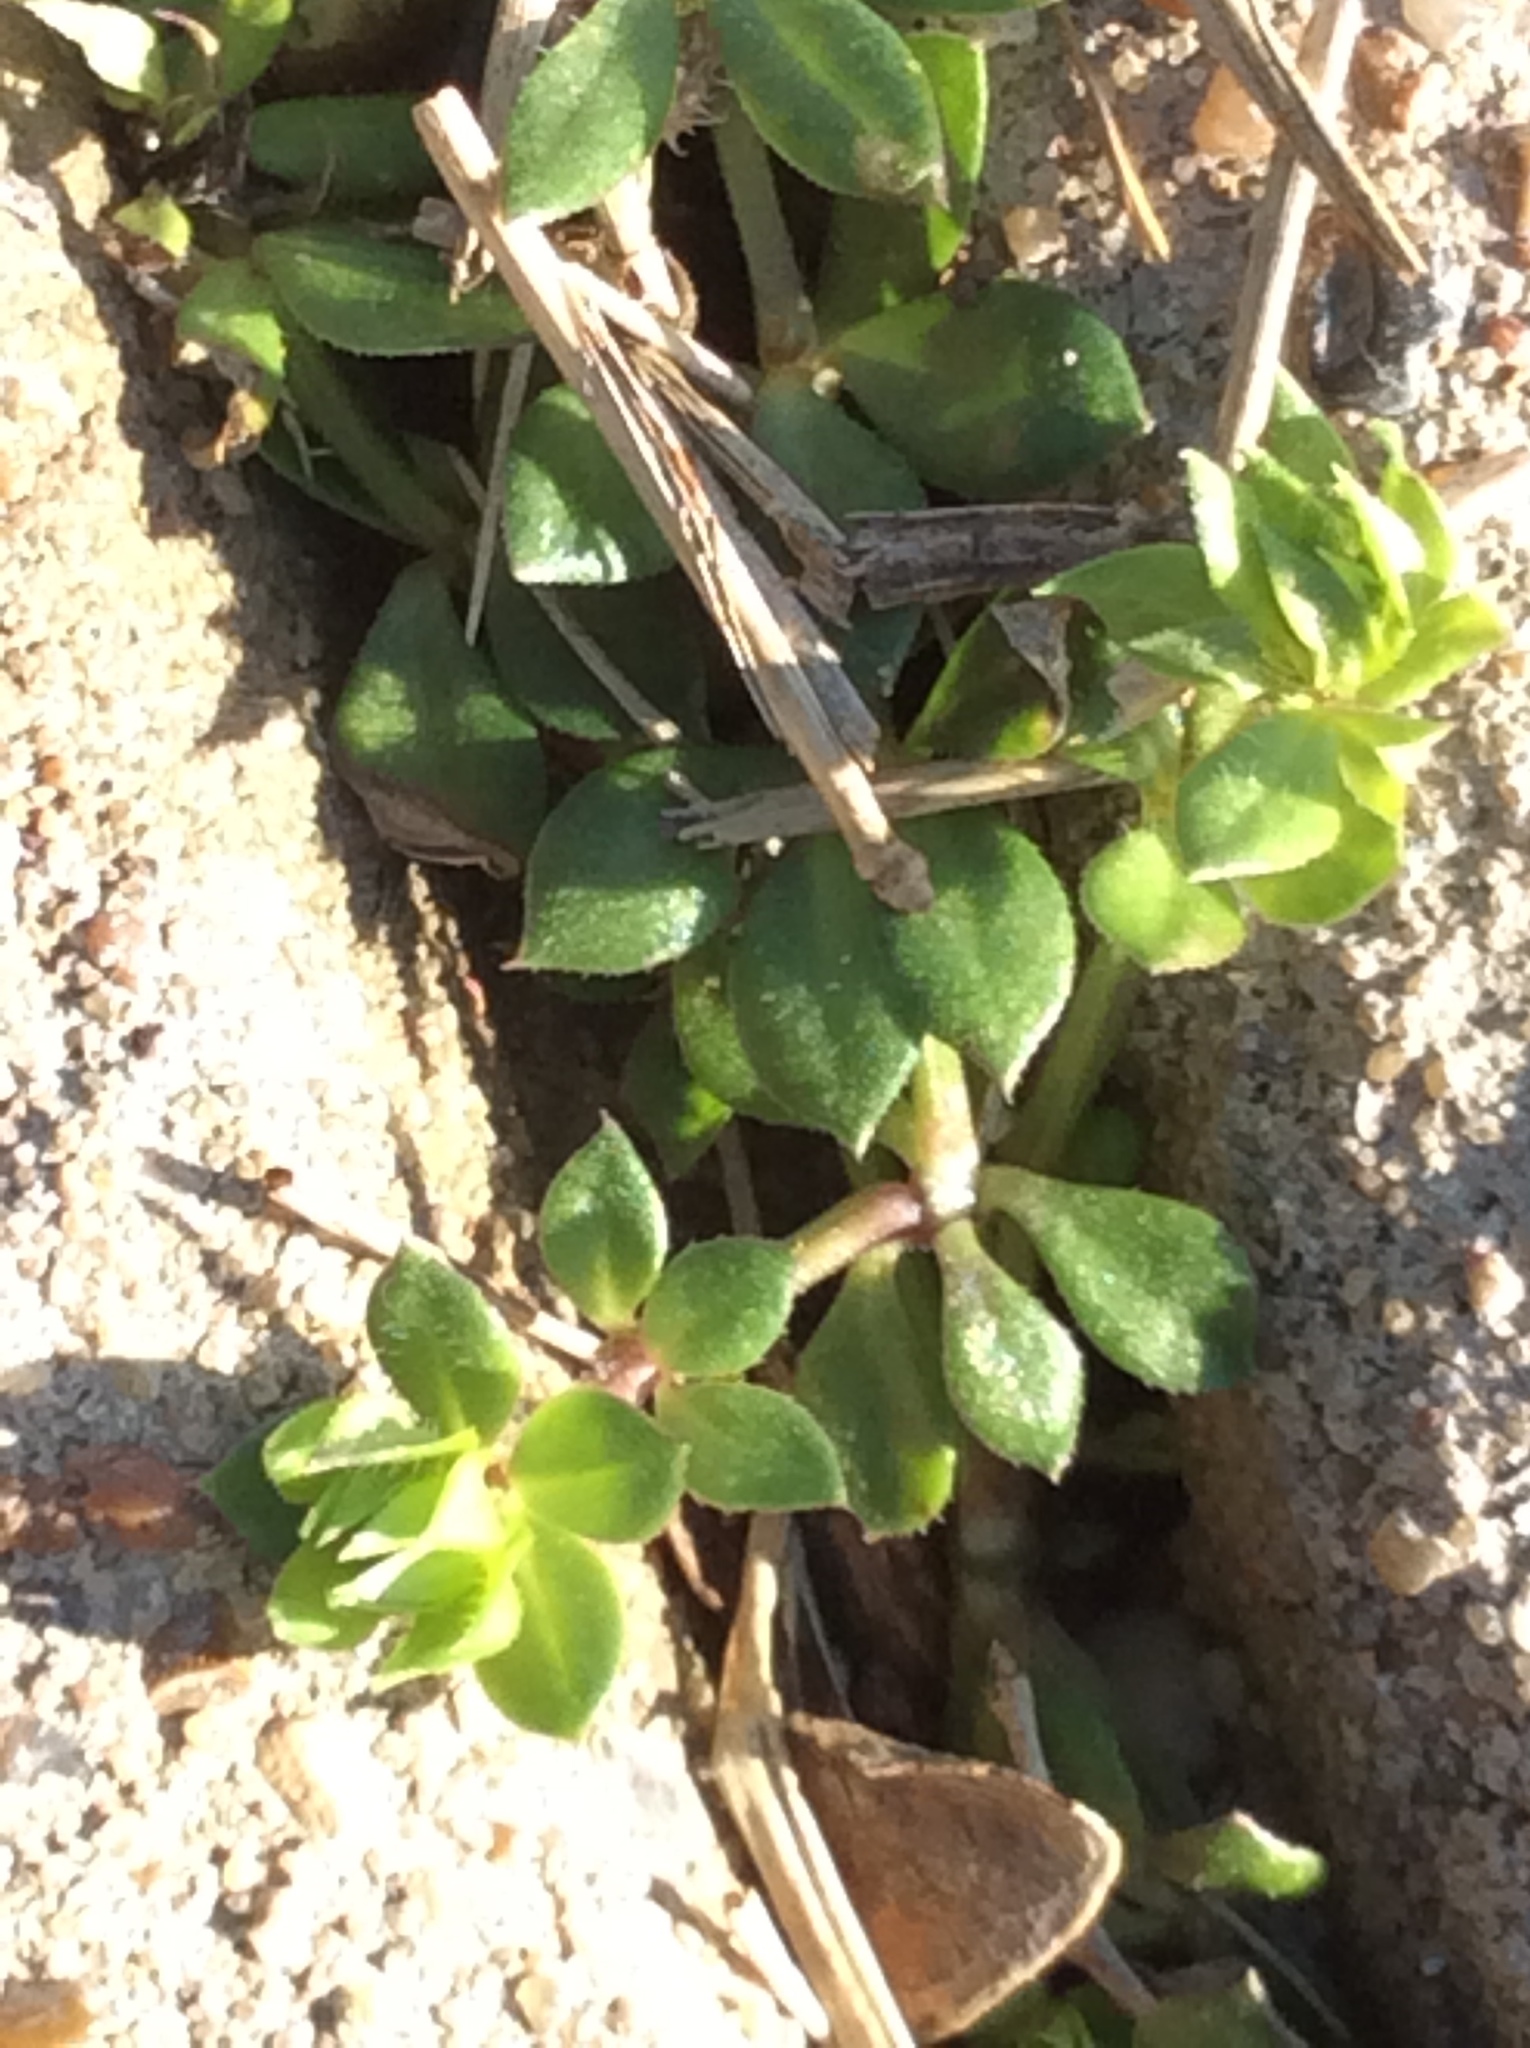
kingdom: Plantae
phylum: Tracheophyta
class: Magnoliopsida
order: Gentianales
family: Rubiaceae
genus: Sherardia
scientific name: Sherardia arvensis
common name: Field madder
